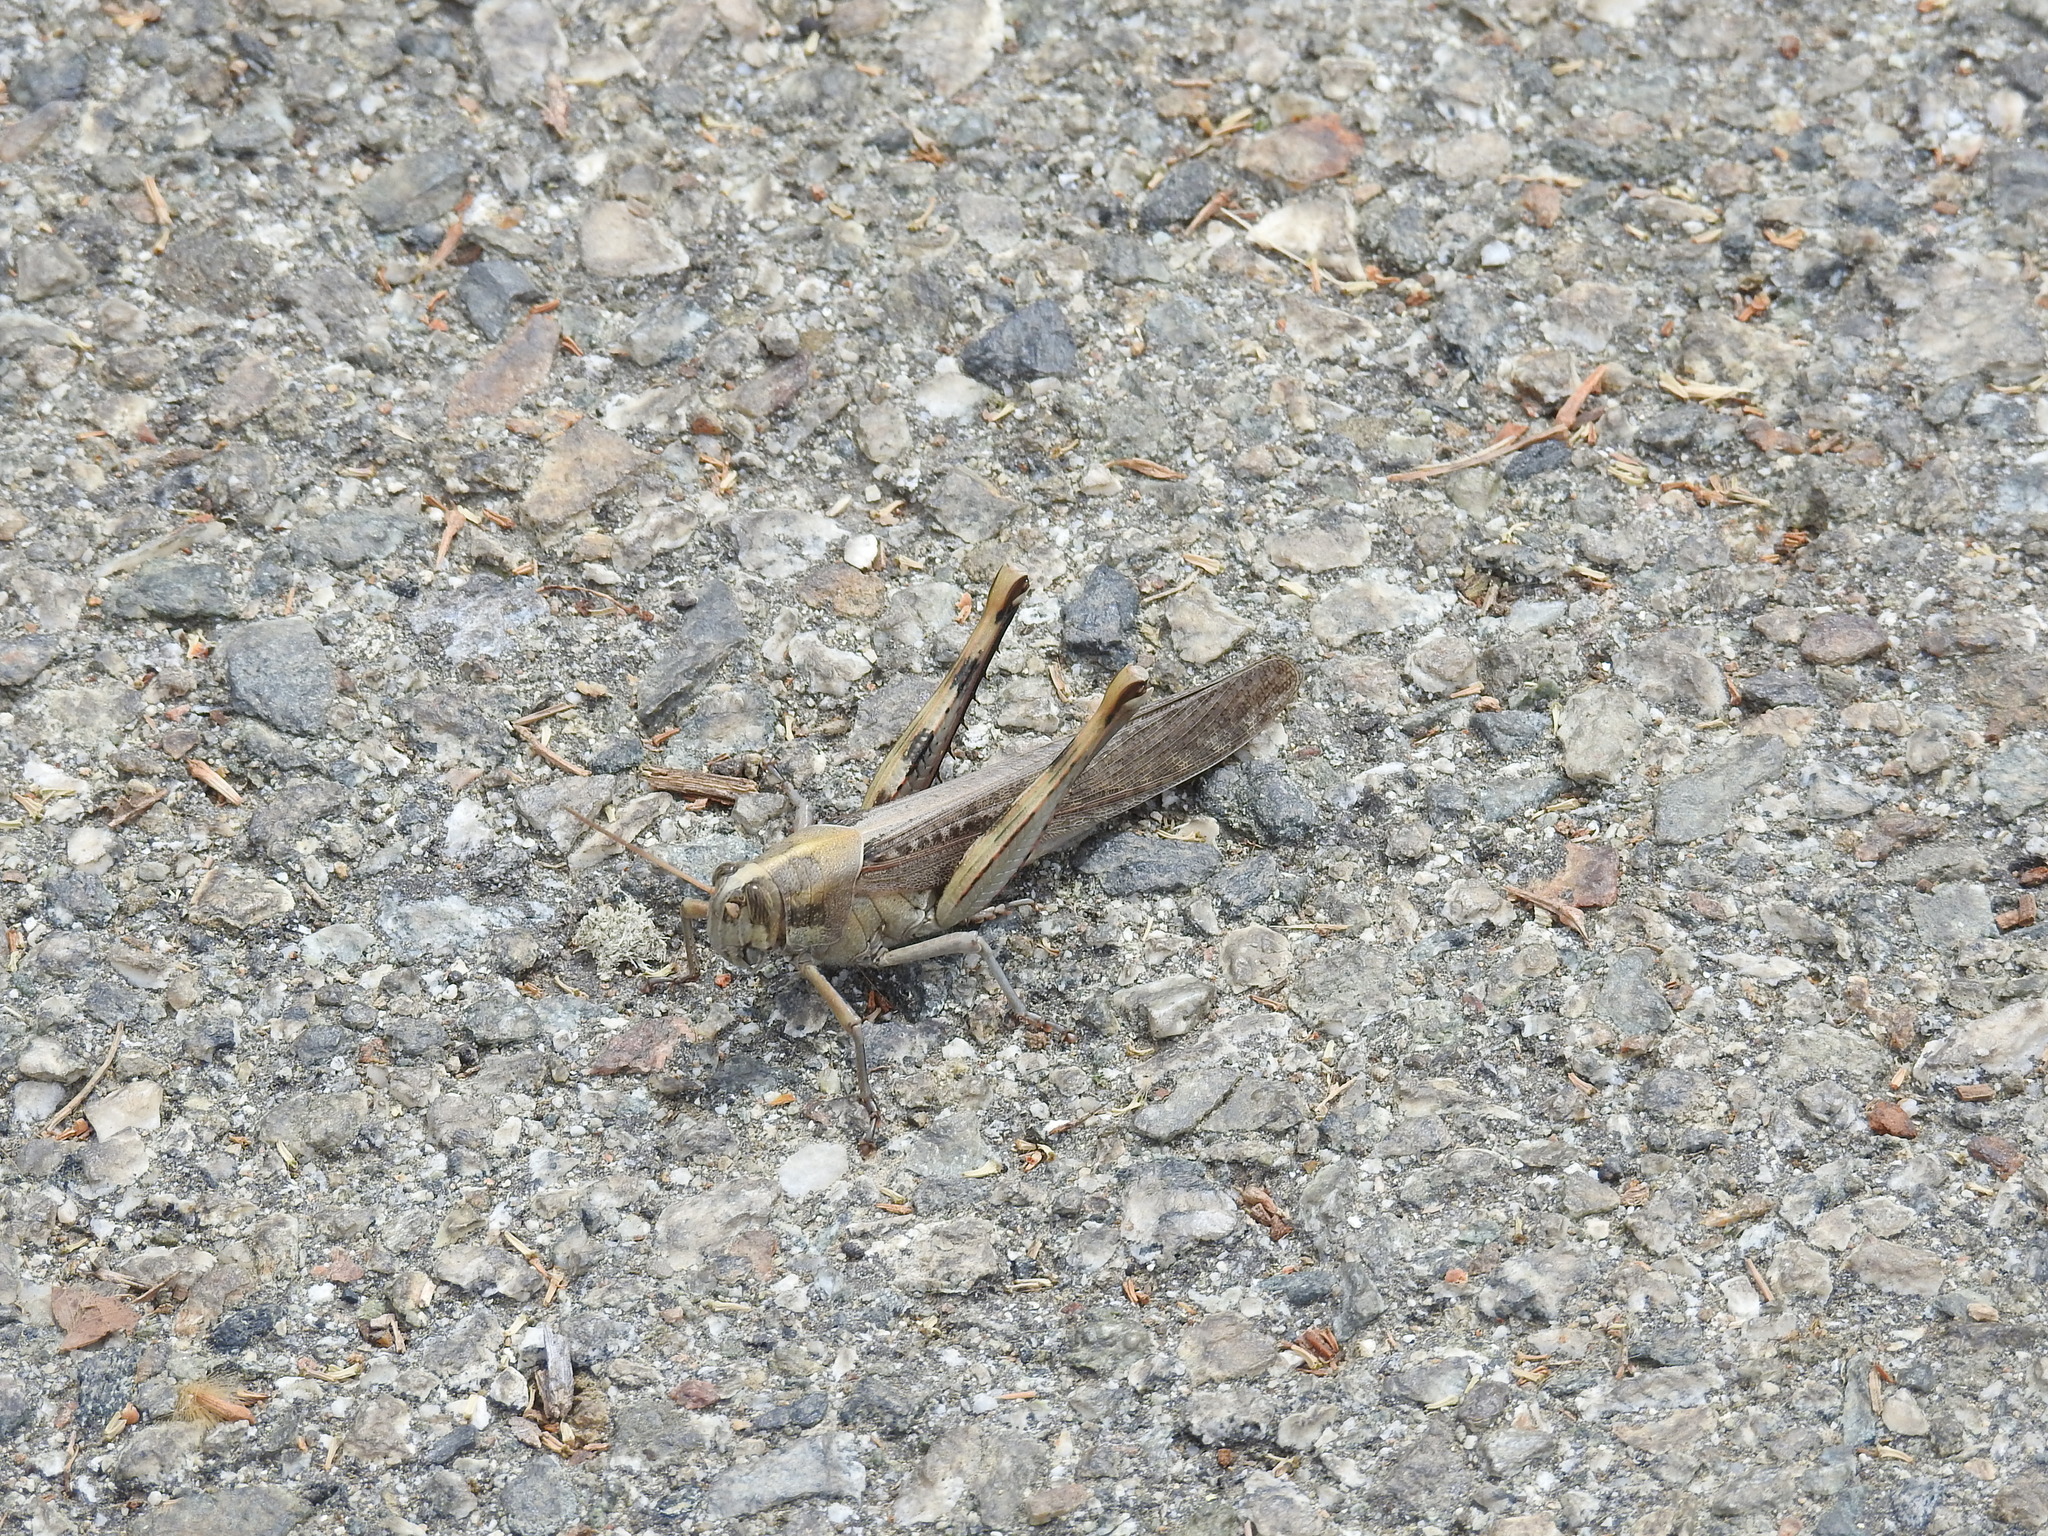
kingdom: Animalia
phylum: Arthropoda
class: Insecta
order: Orthoptera
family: Acrididae
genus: Schistocerca
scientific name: Schistocerca nitens
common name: Vagrant grasshopper
